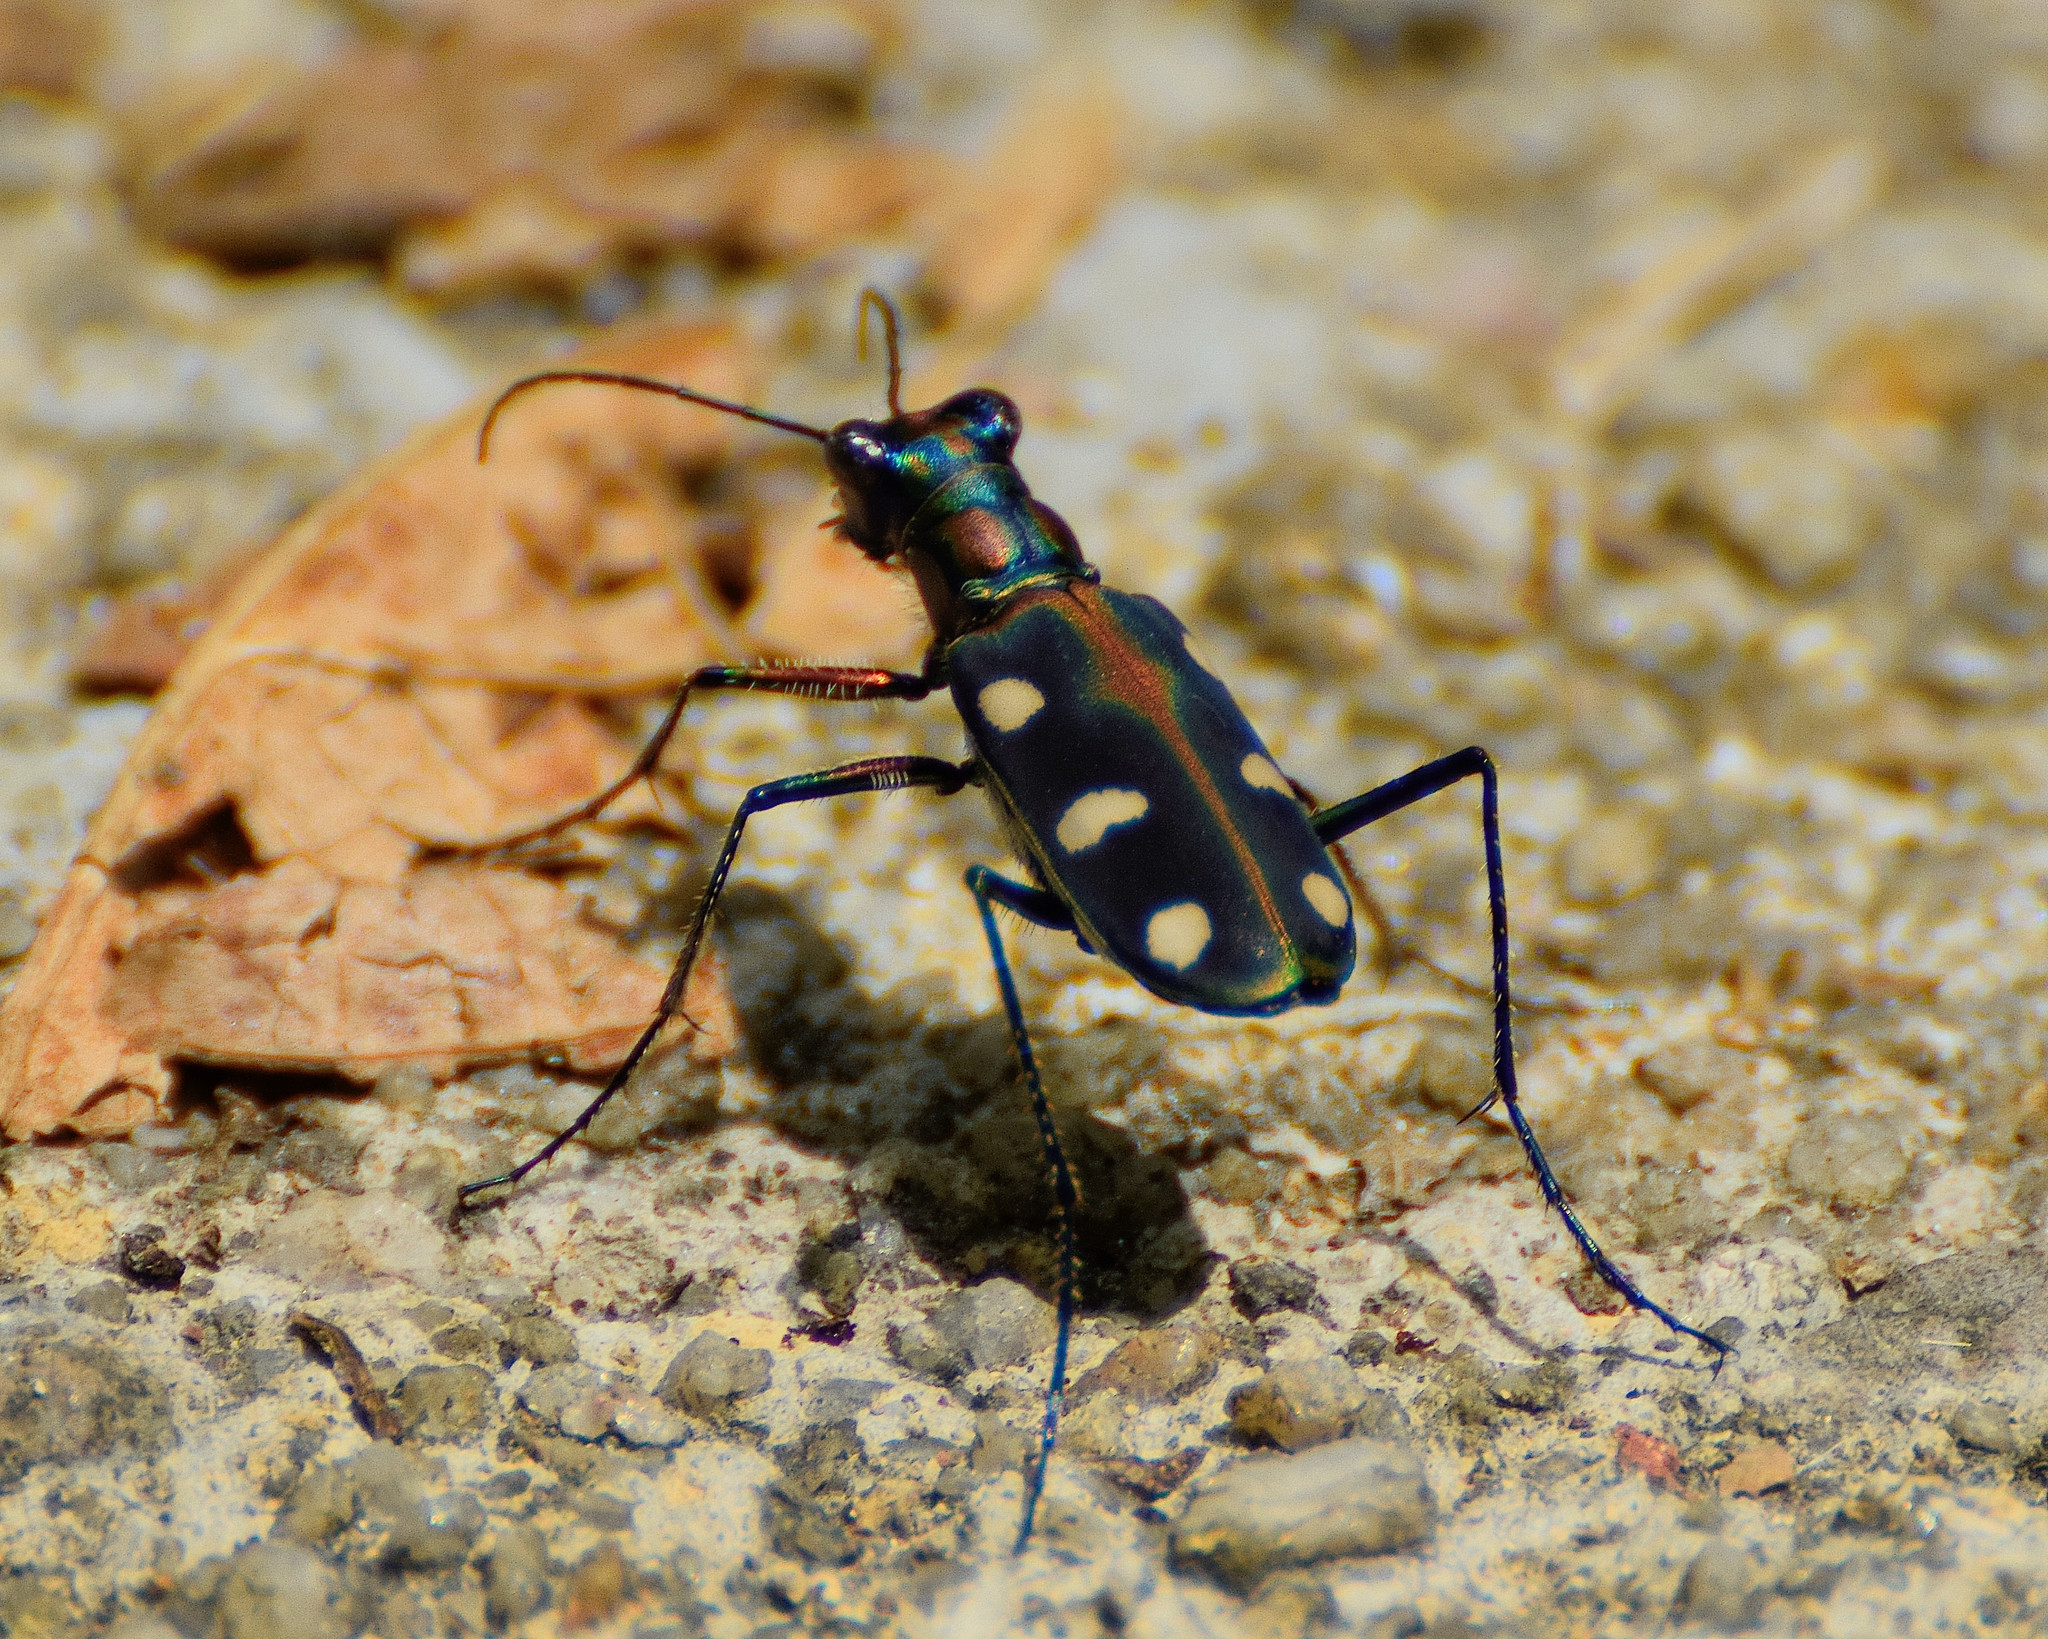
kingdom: Animalia
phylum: Arthropoda
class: Insecta
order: Coleoptera
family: Carabidae
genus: Cicindela
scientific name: Cicindela aurulenta
